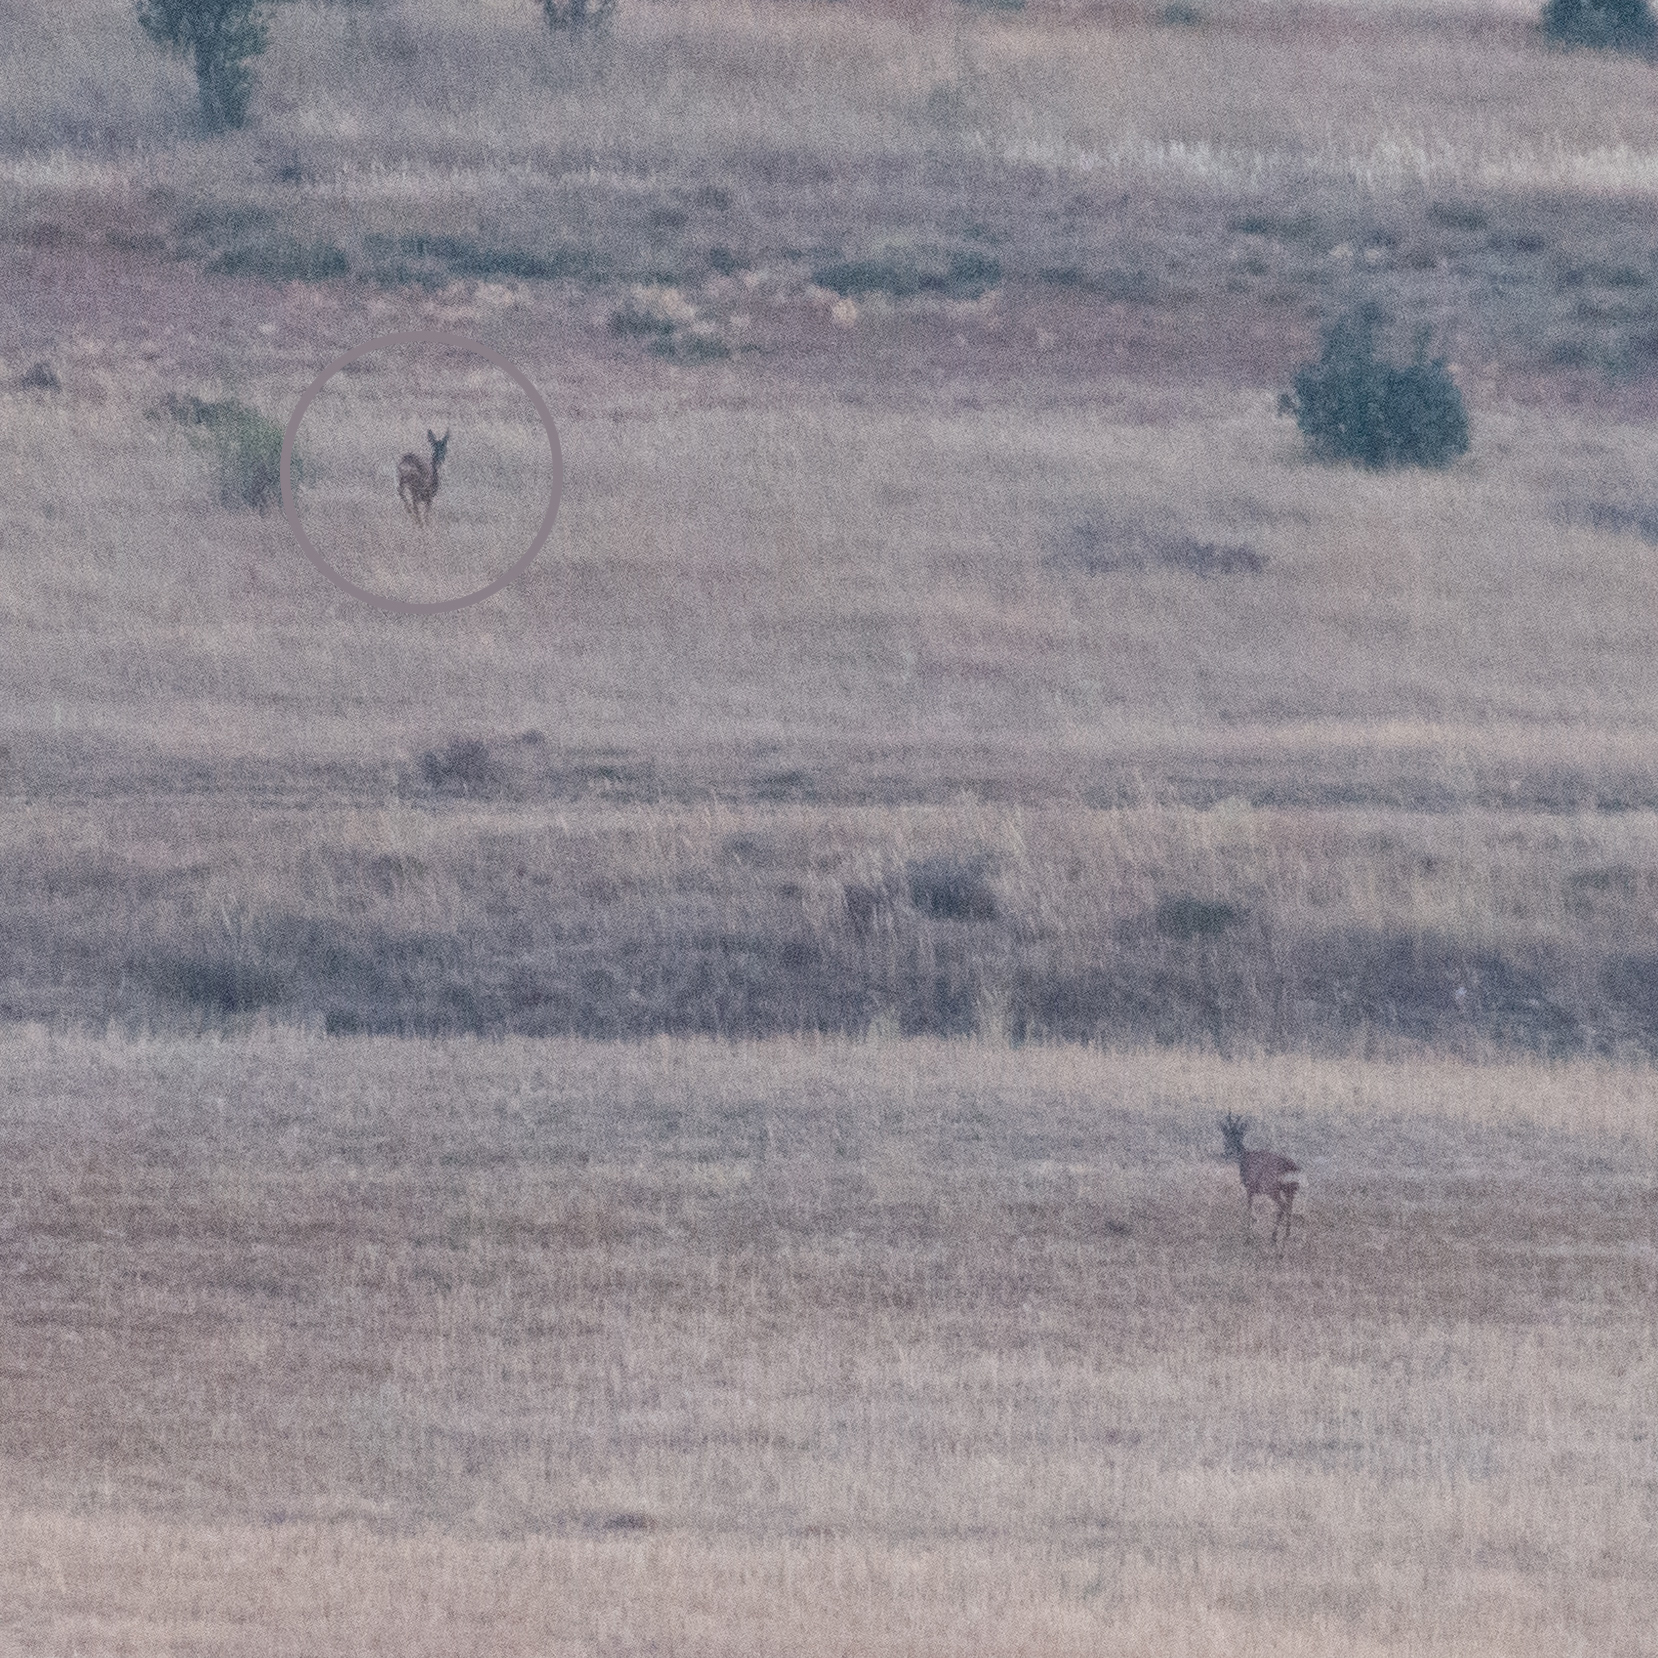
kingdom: Animalia
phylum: Chordata
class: Mammalia
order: Artiodactyla
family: Cervidae
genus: Capreolus
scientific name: Capreolus capreolus
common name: Western roe deer
